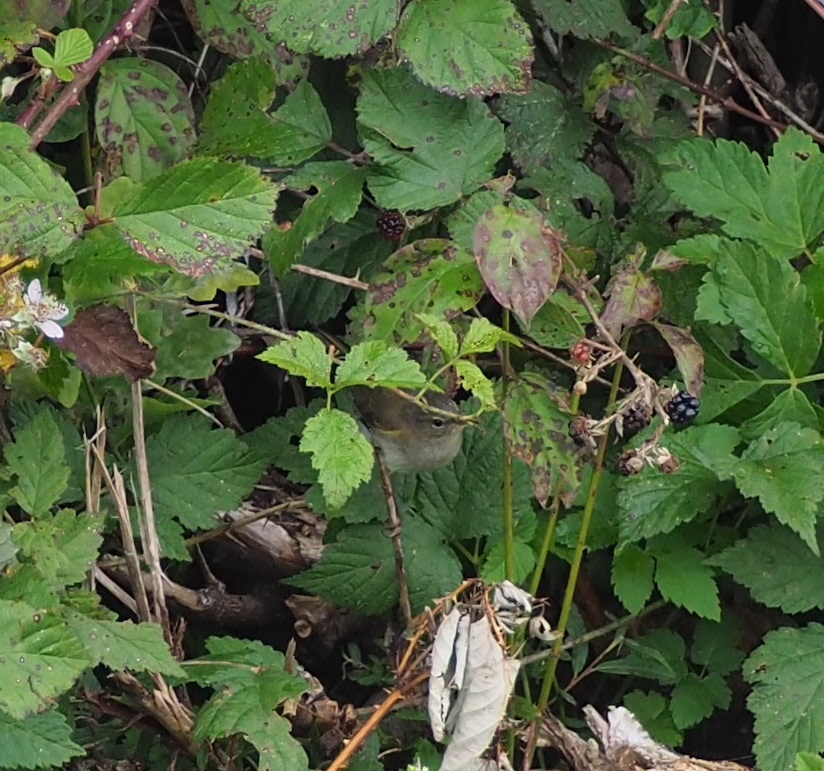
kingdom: Animalia
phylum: Chordata
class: Aves
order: Passeriformes
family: Phylloscopidae
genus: Phylloscopus
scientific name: Phylloscopus collybita
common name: Common chiffchaff
